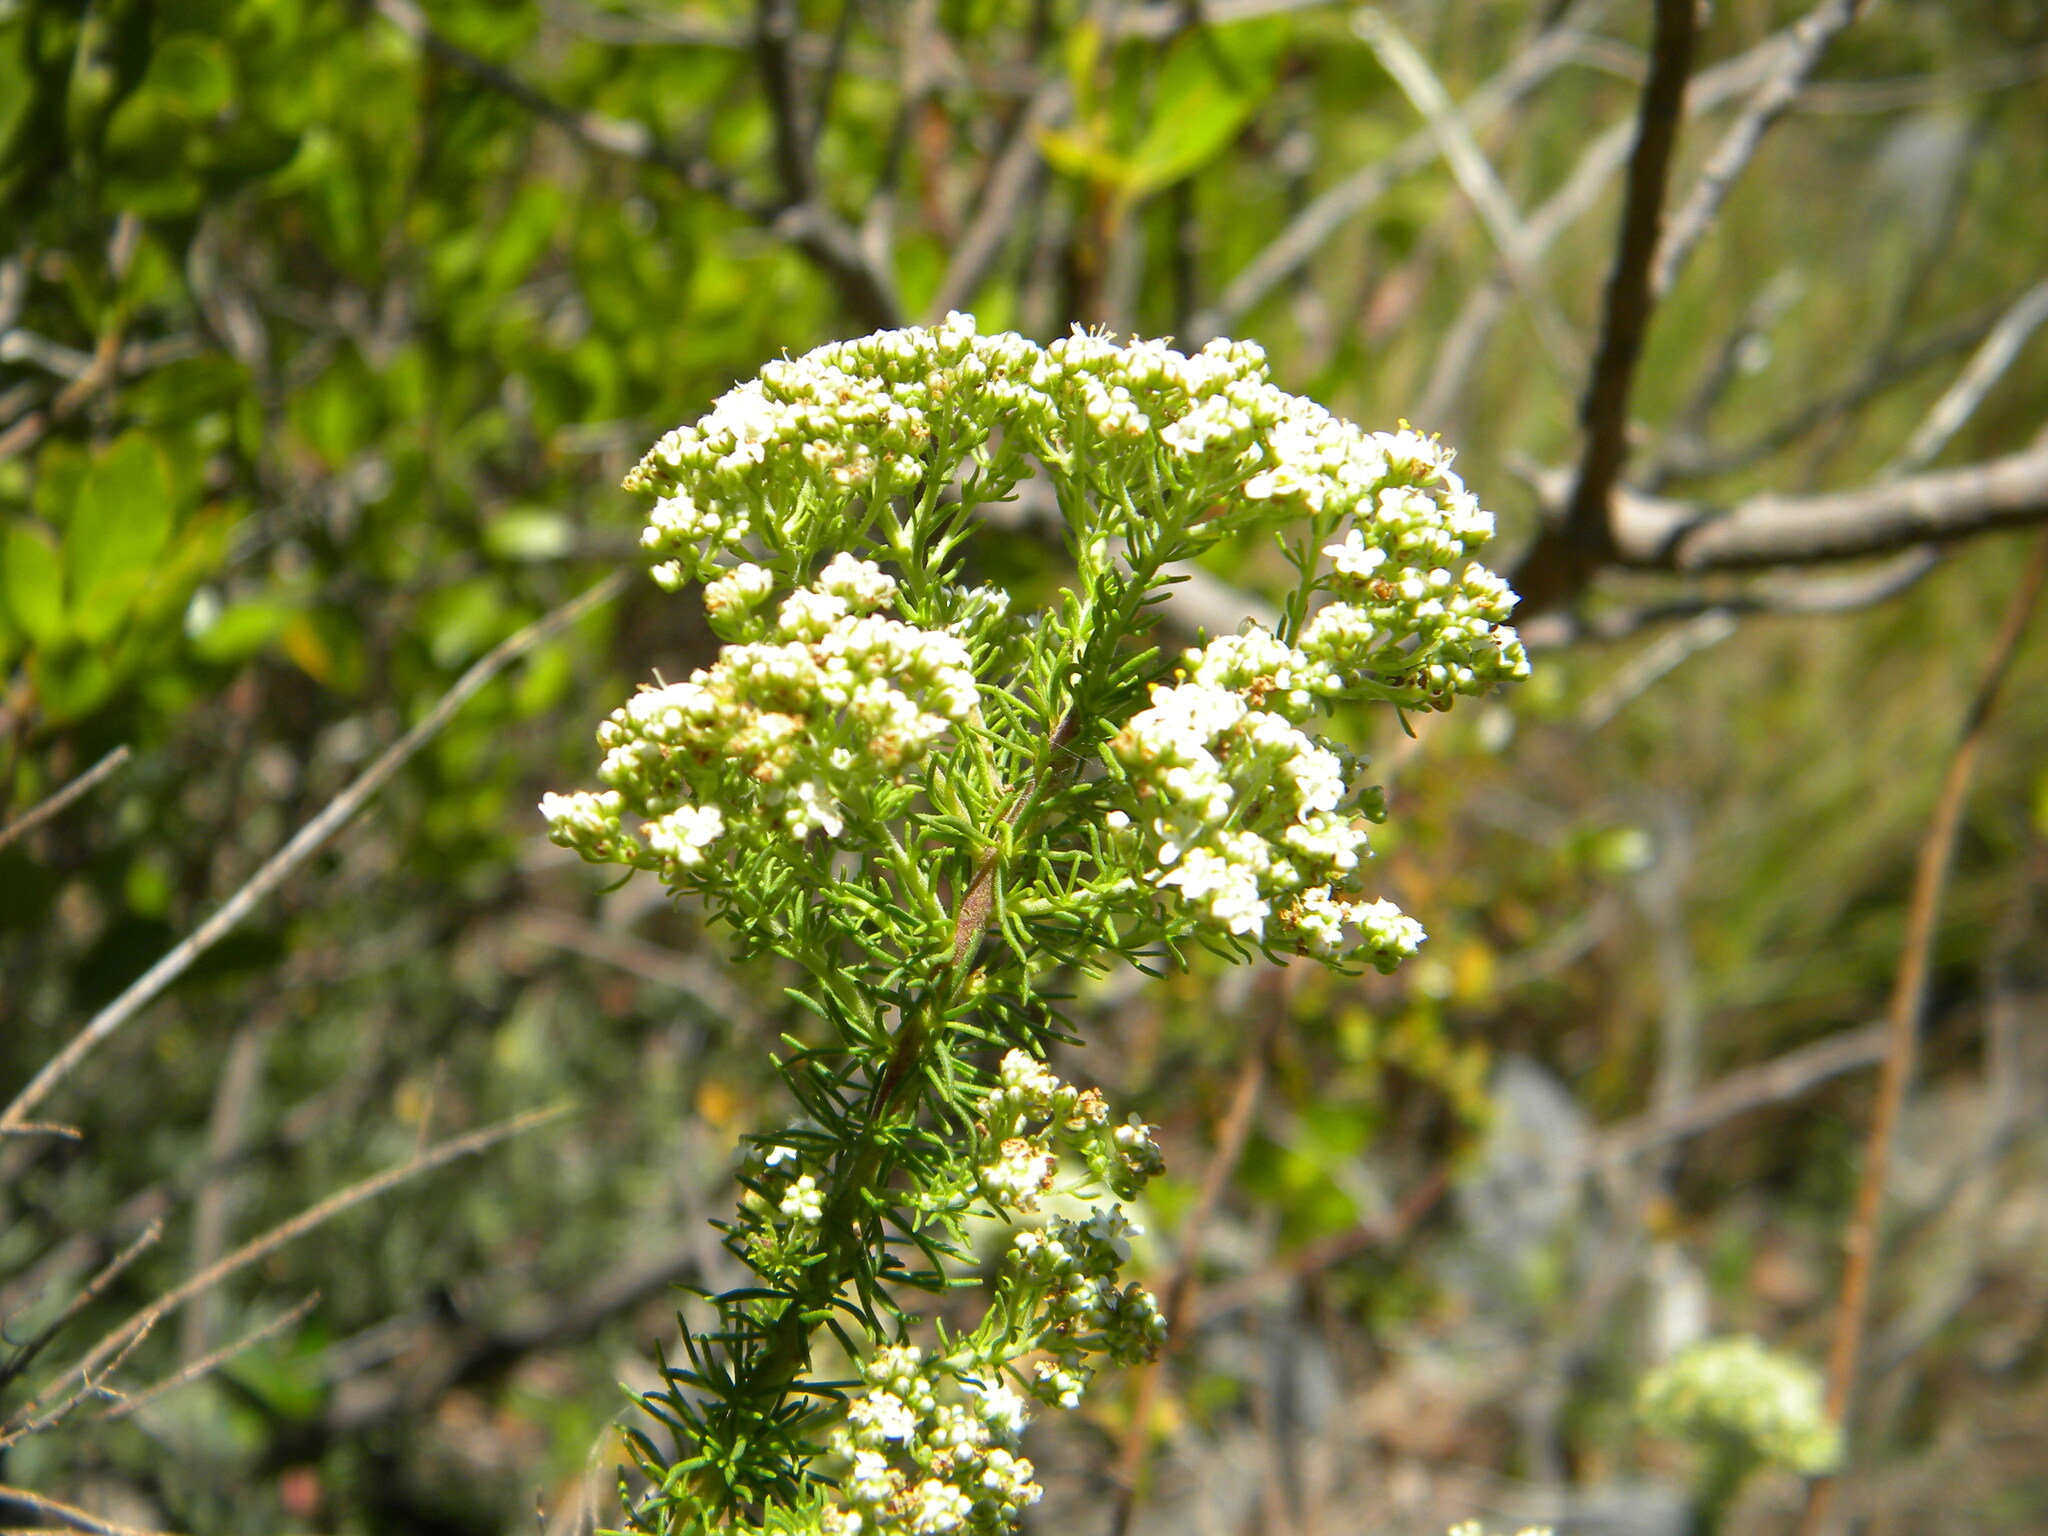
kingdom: Plantae
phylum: Tracheophyta
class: Magnoliopsida
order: Lamiales
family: Scrophulariaceae
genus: Selago
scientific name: Selago corymbosa
